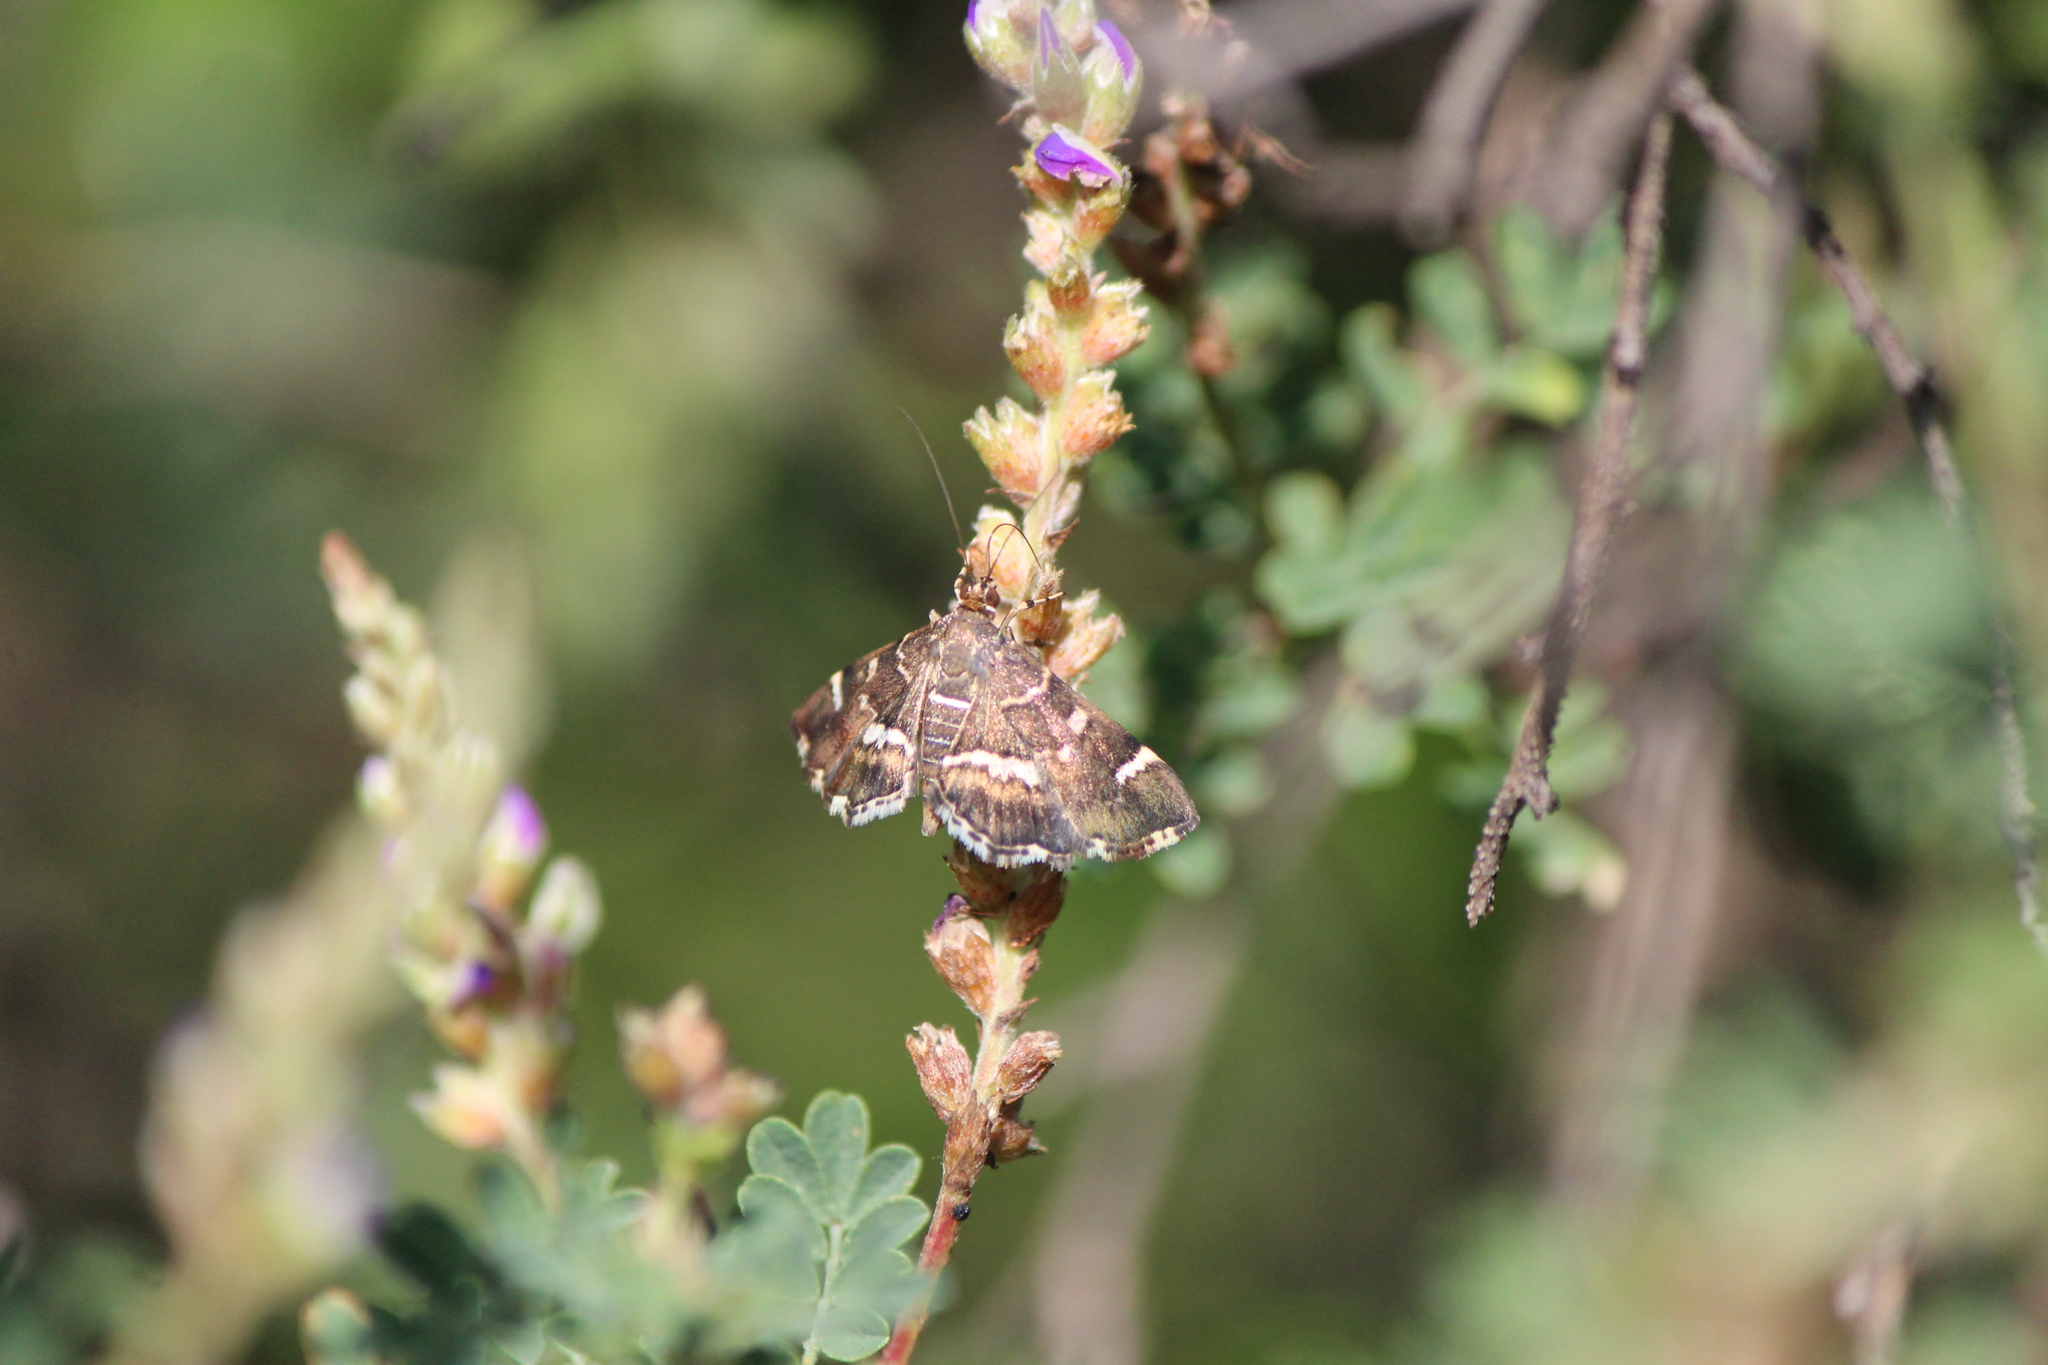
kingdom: Animalia
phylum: Arthropoda
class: Insecta
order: Lepidoptera
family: Crambidae
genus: Hymenia
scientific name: Hymenia perspectalis
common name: Spotted beet webworm
